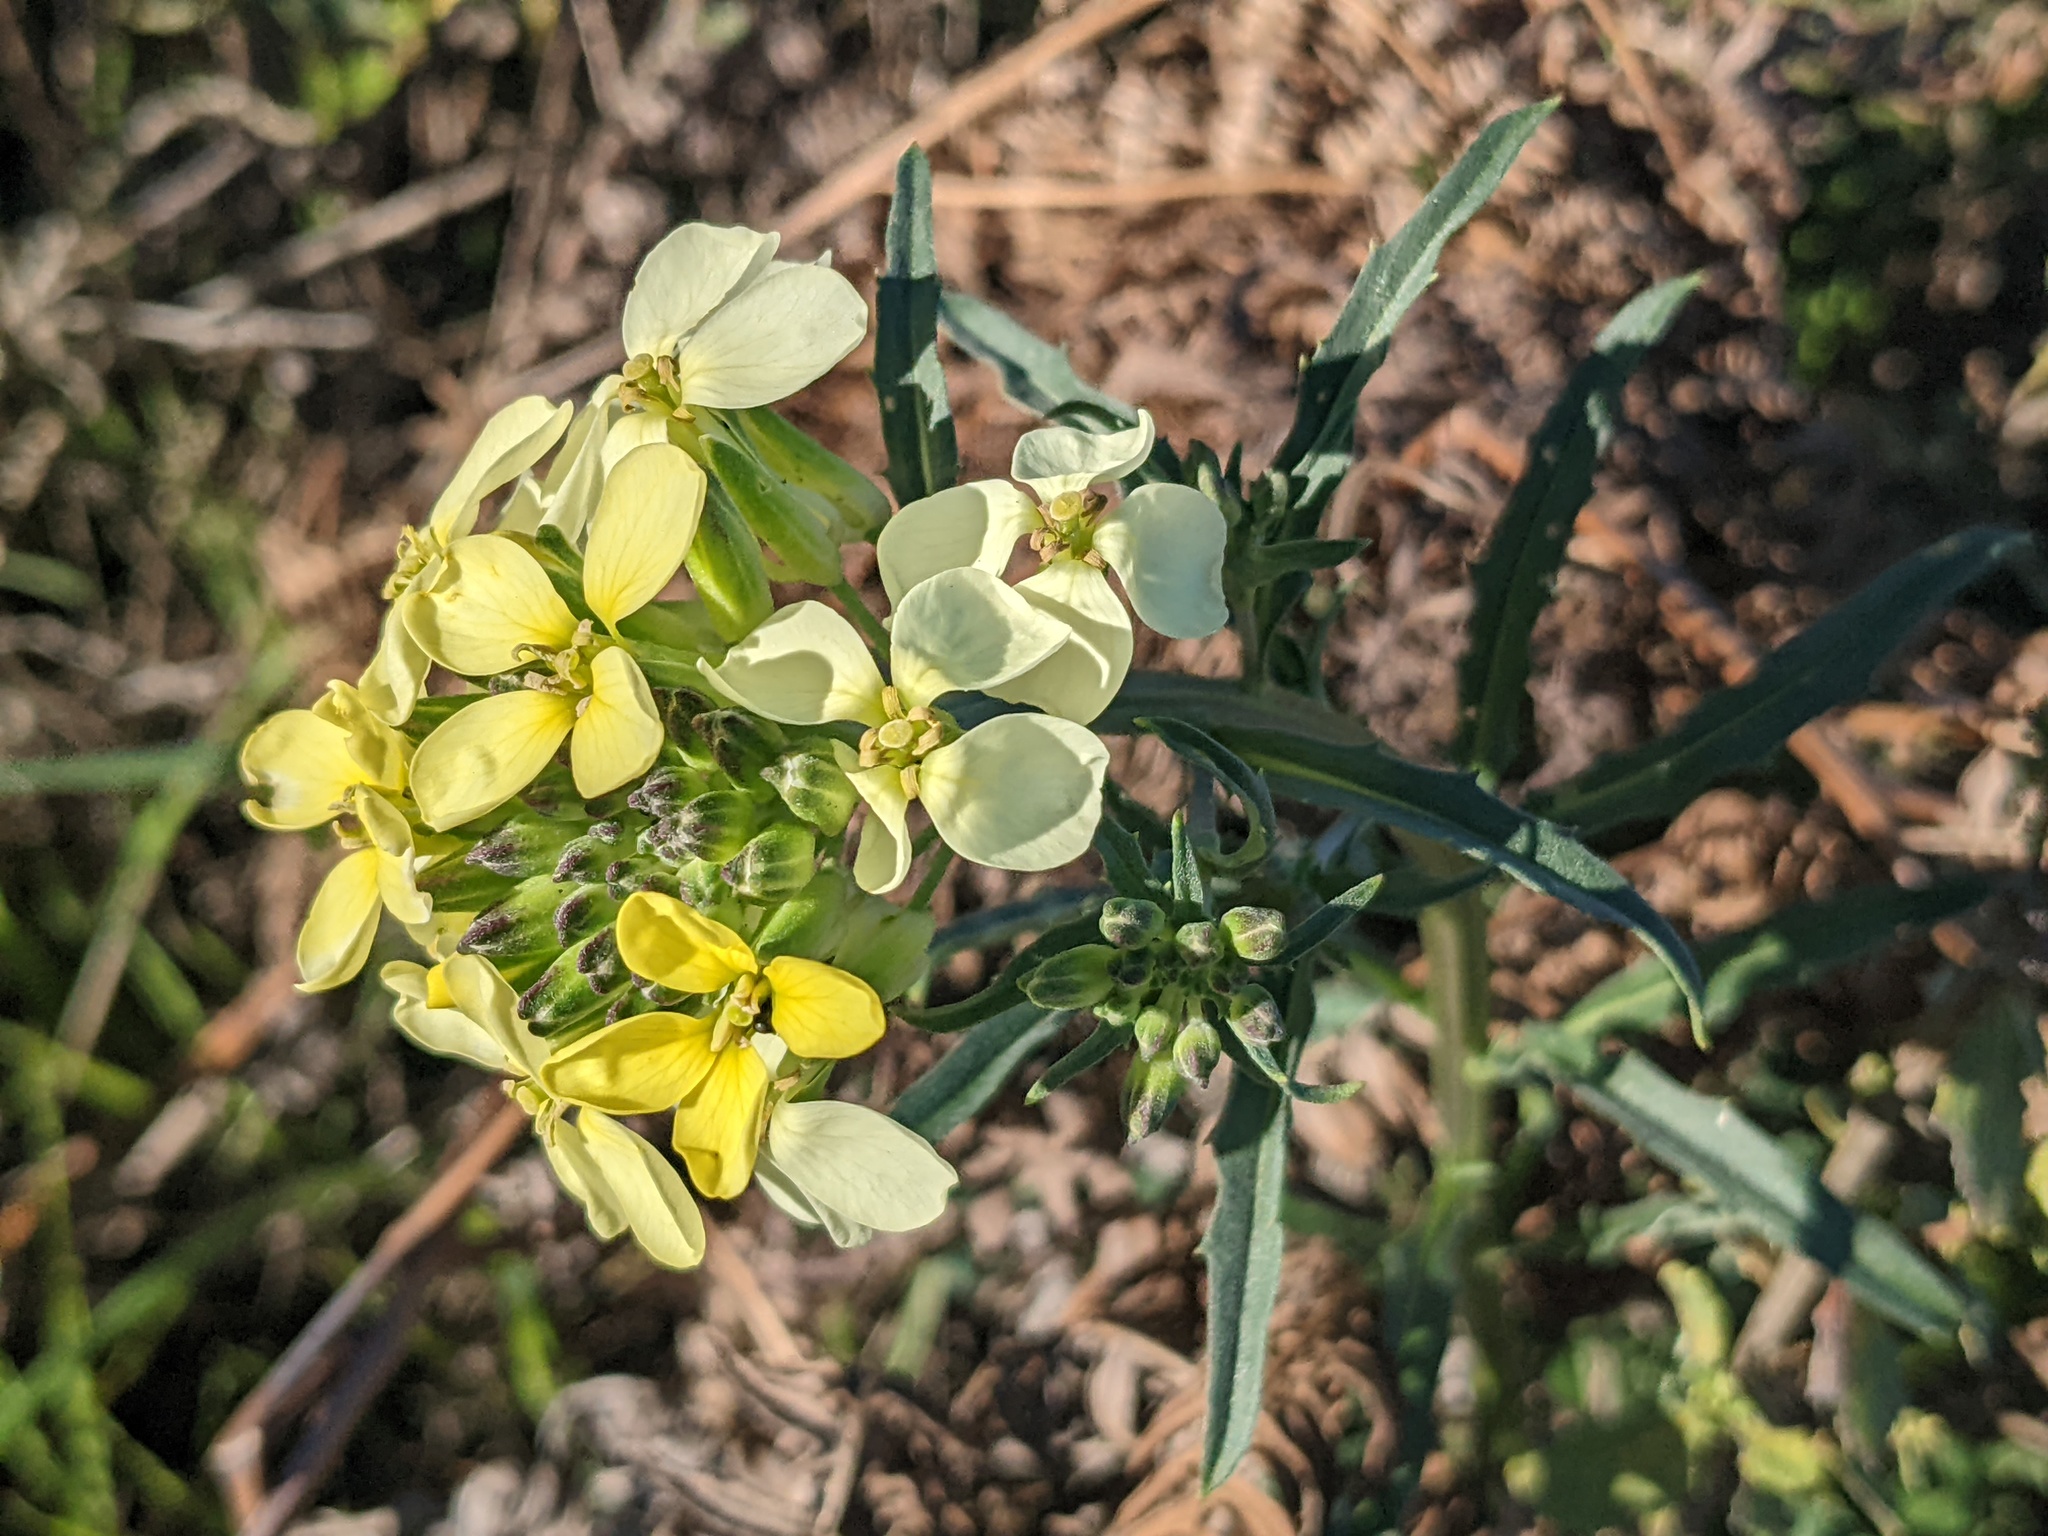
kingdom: Plantae
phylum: Tracheophyta
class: Magnoliopsida
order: Brassicales
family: Brassicaceae
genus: Erysimum
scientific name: Erysimum franciscanum
